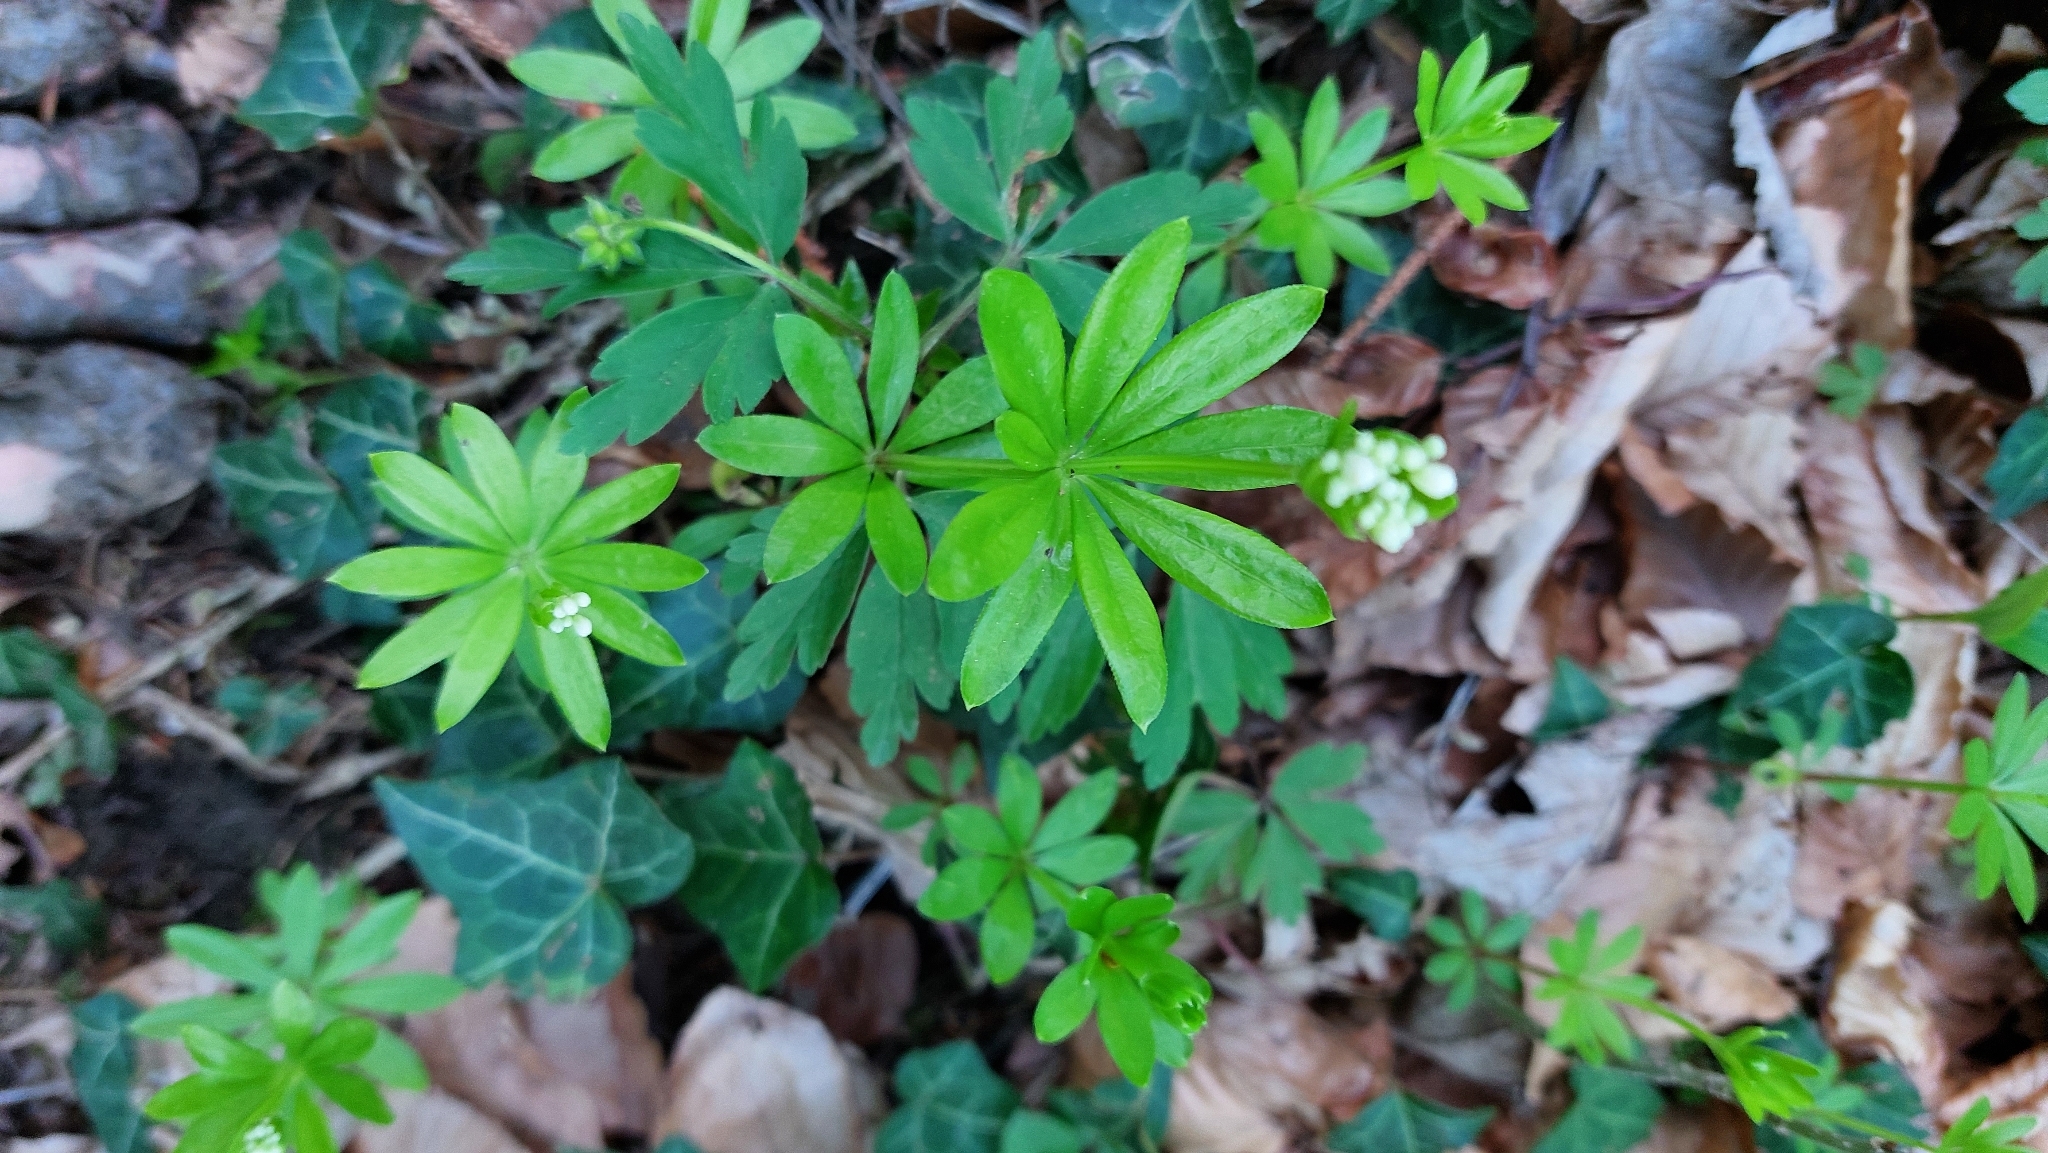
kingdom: Plantae
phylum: Tracheophyta
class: Magnoliopsida
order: Gentianales
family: Rubiaceae
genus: Galium
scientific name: Galium odoratum
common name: Sweet woodruff
